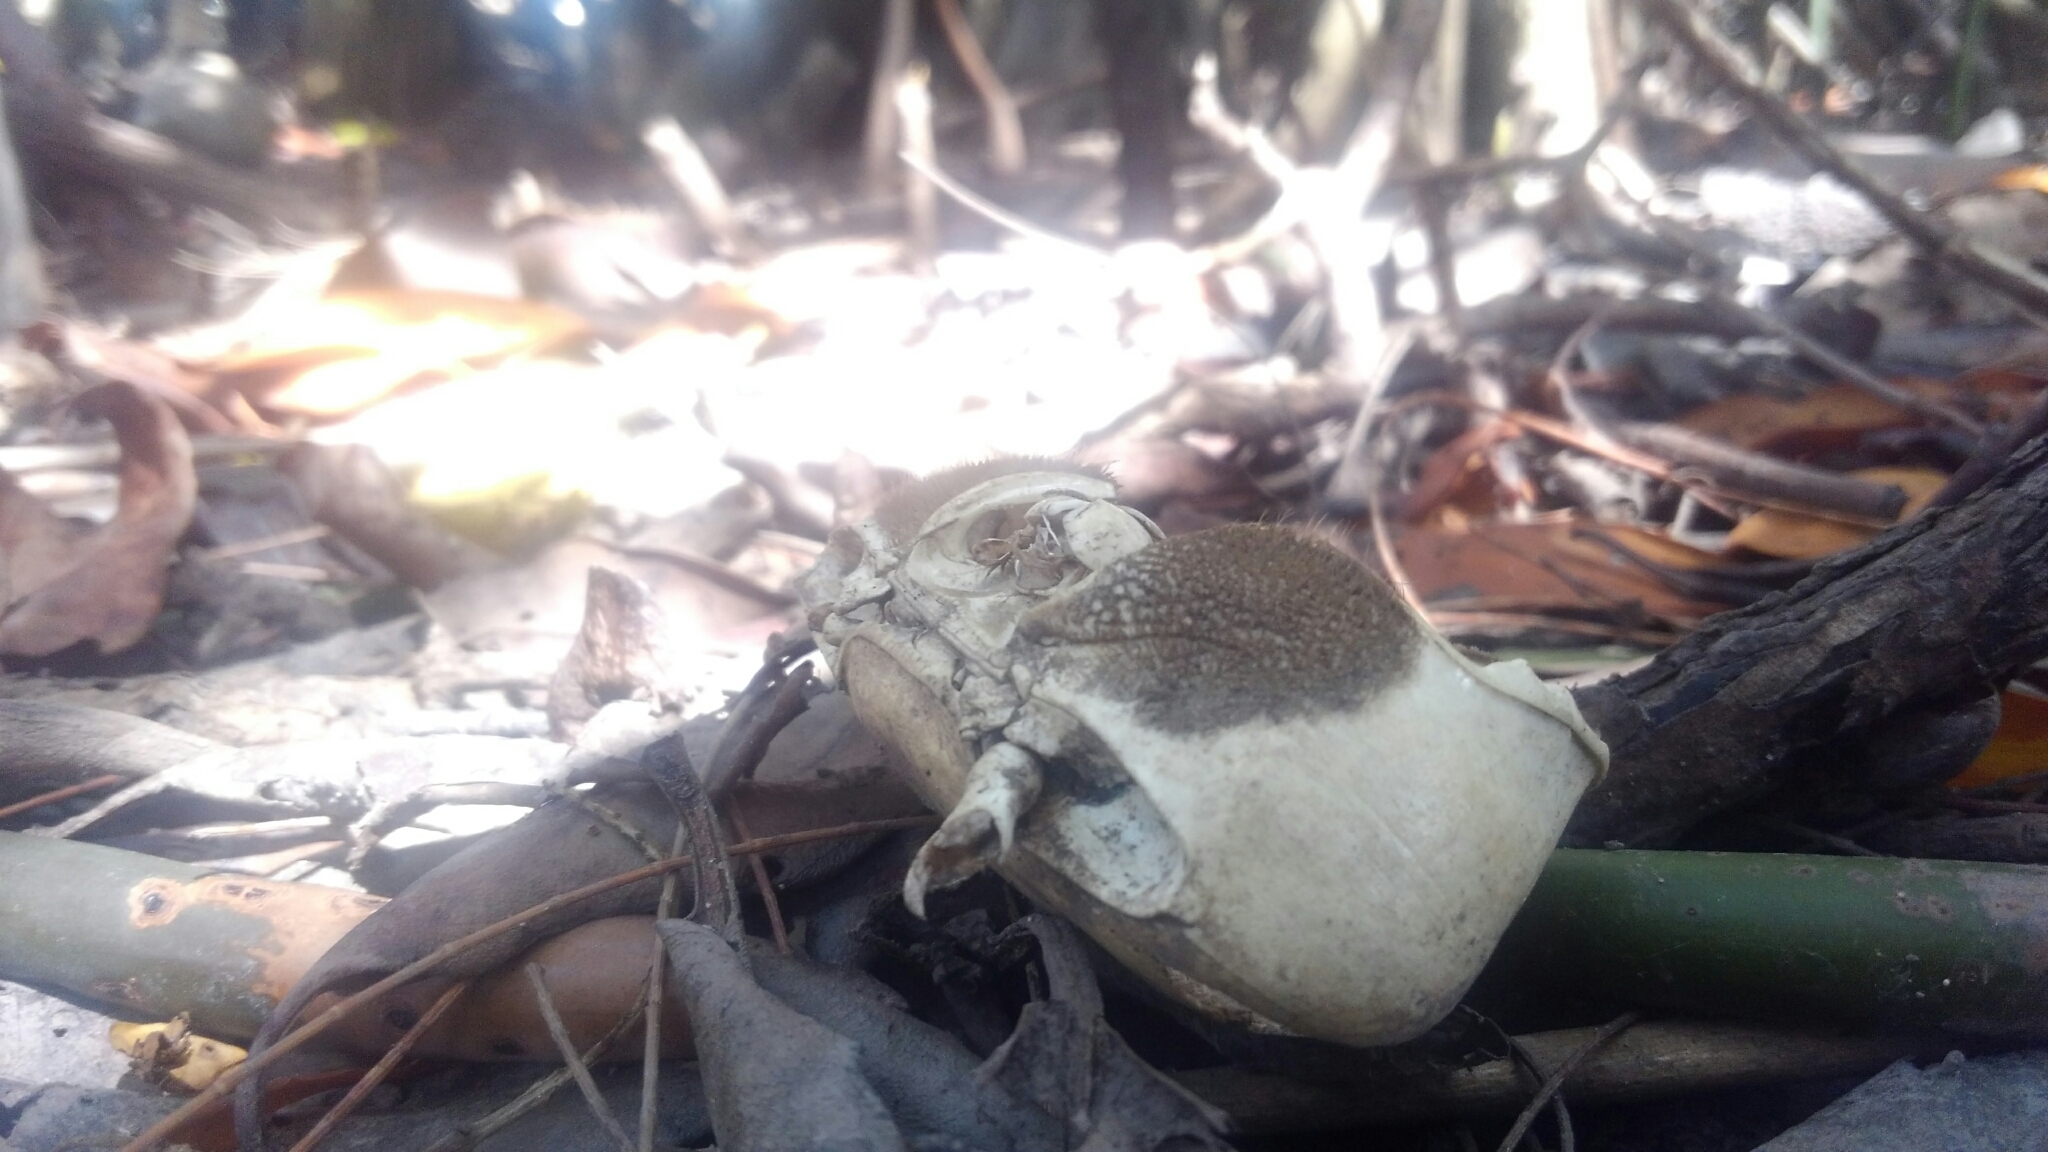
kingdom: Animalia
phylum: Arthropoda
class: Malacostraca
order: Decapoda
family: Gecarcinidae
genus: Cardisoma
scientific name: Cardisoma guanhumi
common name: Great land crab
